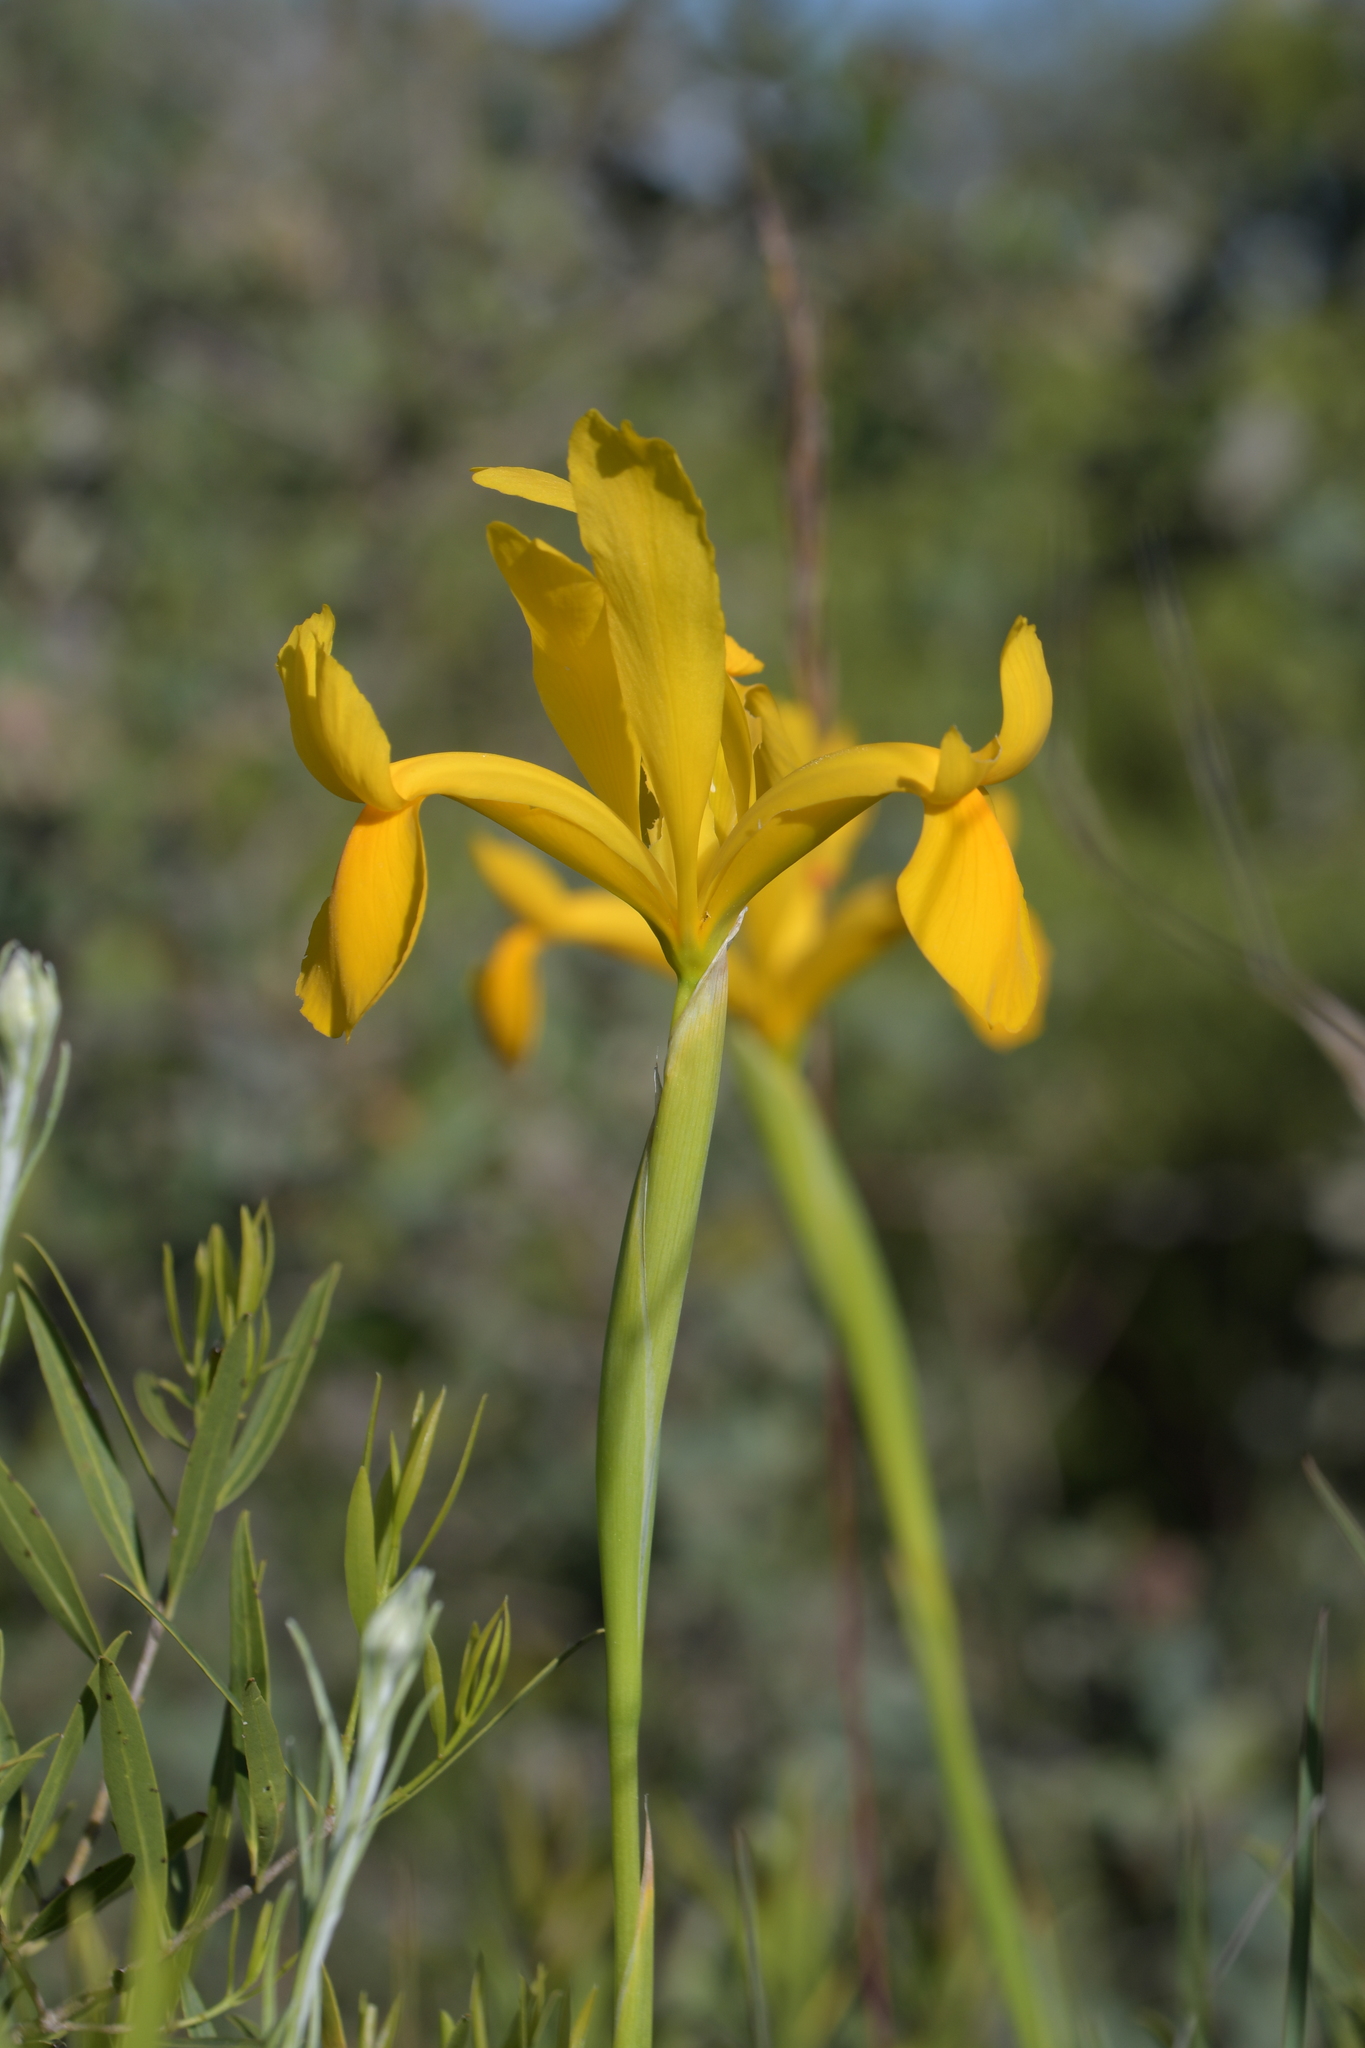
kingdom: Plantae
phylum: Tracheophyta
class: Liliopsida
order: Asparagales
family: Iridaceae
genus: Iris
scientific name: Iris
